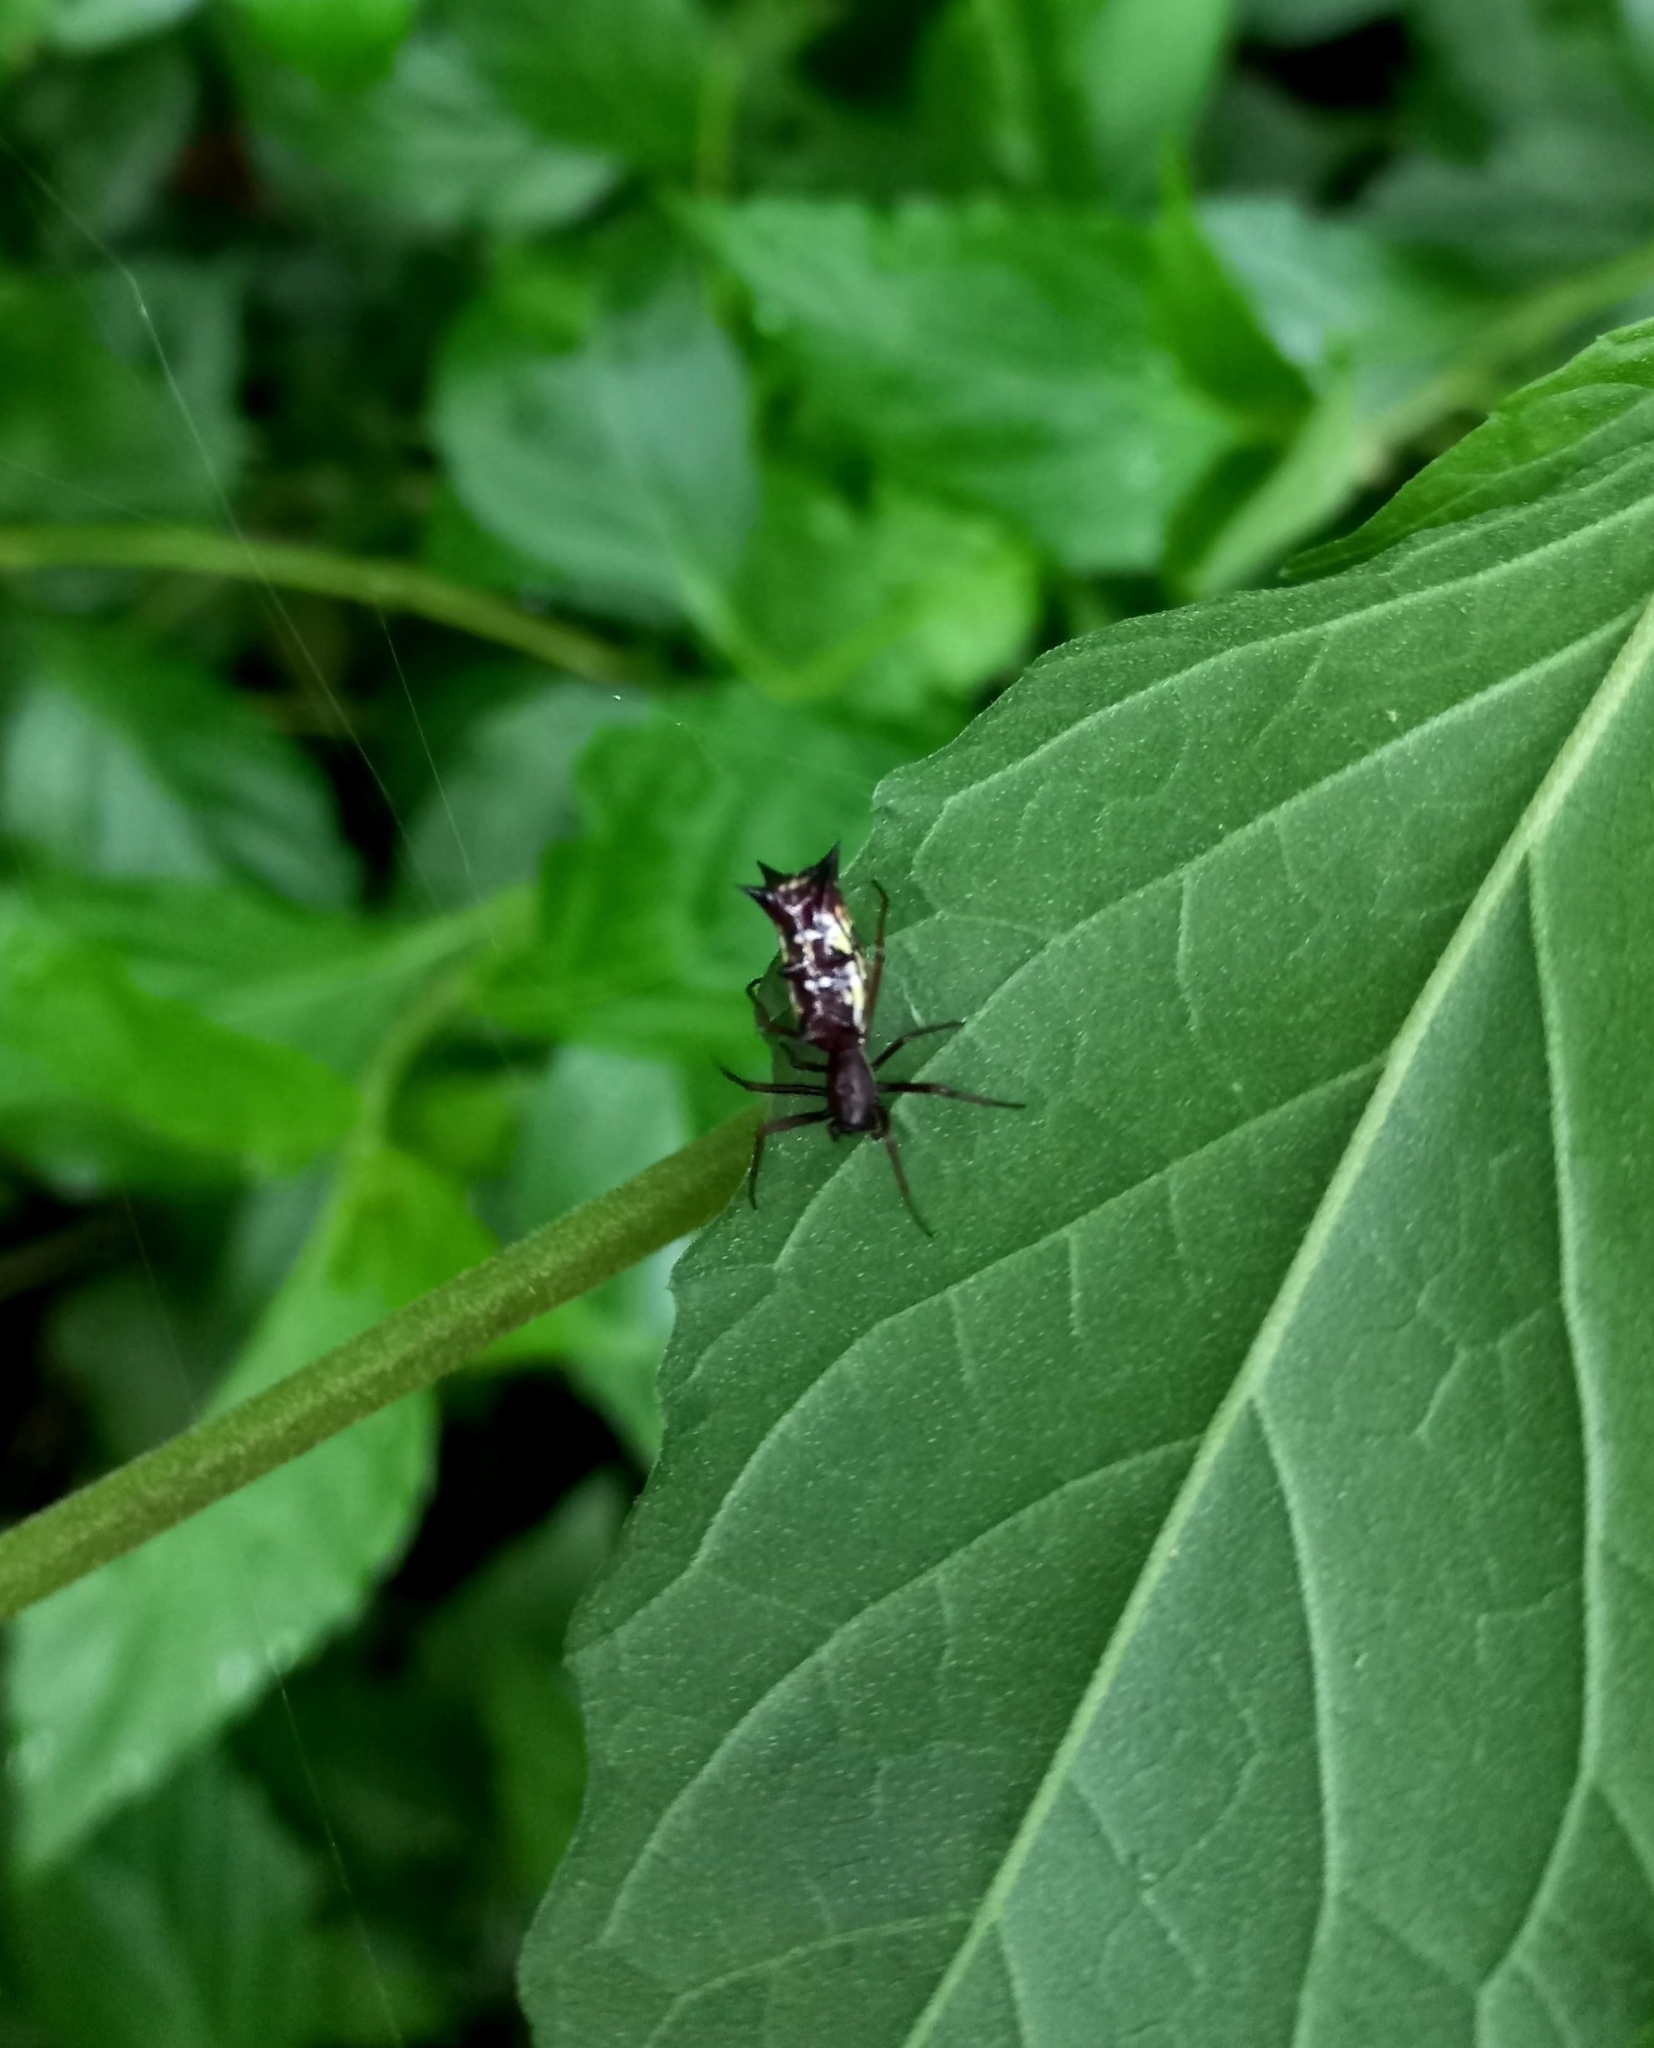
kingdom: Animalia
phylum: Arthropoda
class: Arachnida
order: Araneae
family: Araneidae
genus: Micrathena
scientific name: Micrathena swainsoni
